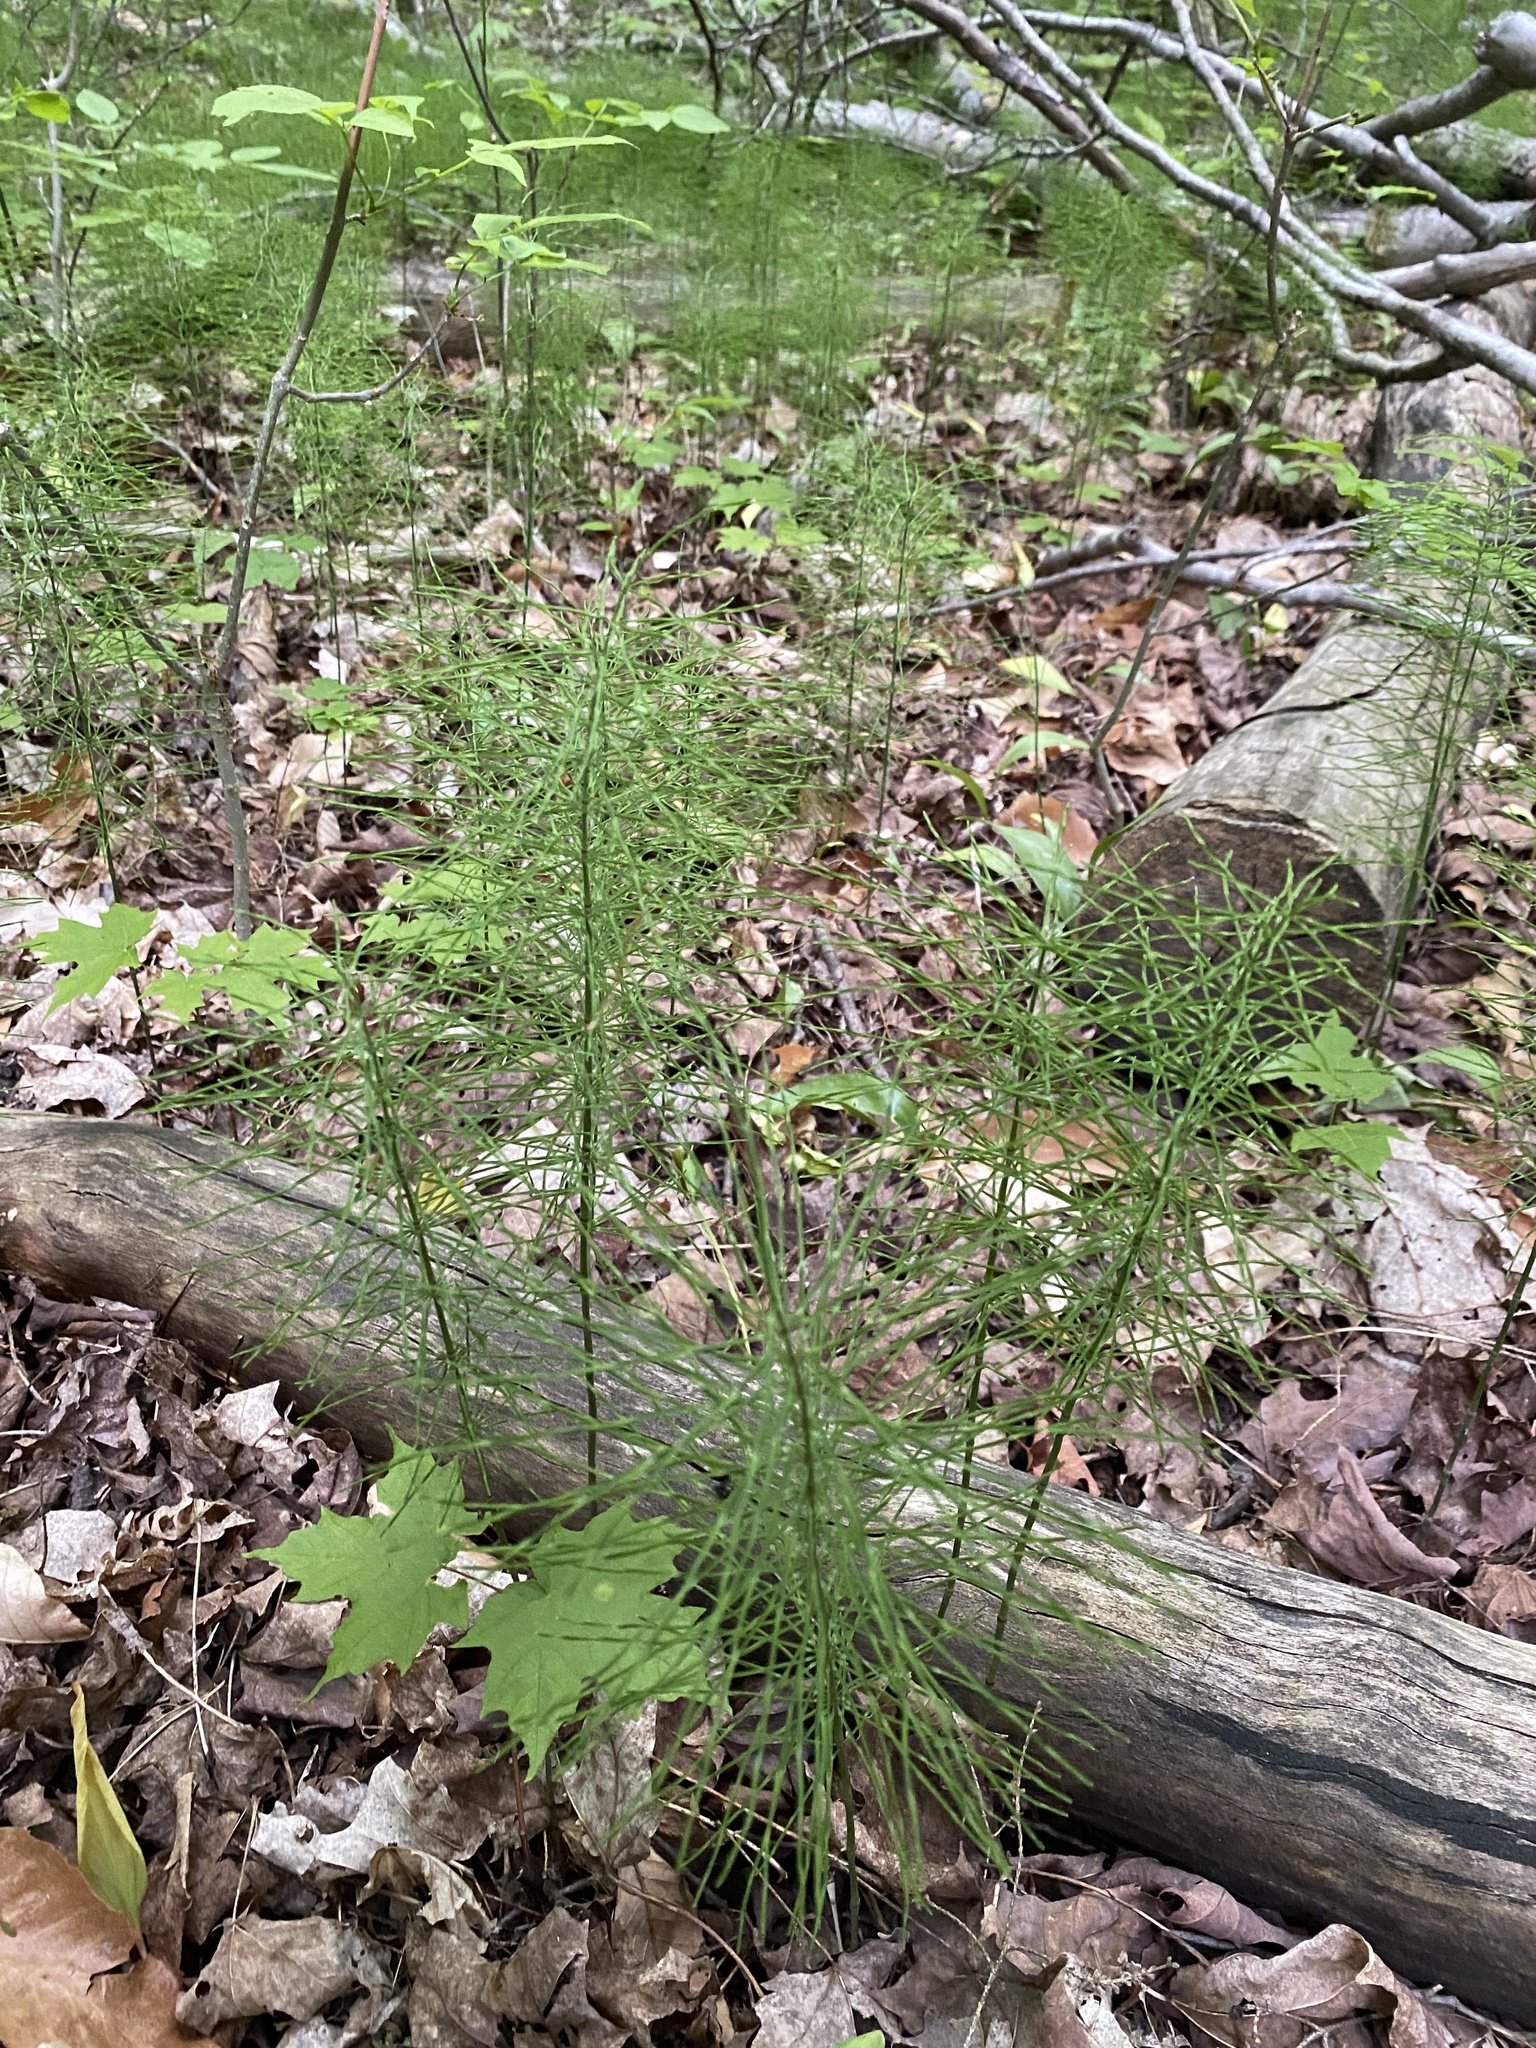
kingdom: Plantae
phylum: Tracheophyta
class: Polypodiopsida
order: Equisetales
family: Equisetaceae
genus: Equisetum
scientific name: Equisetum pratense
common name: Meadow horsetail
